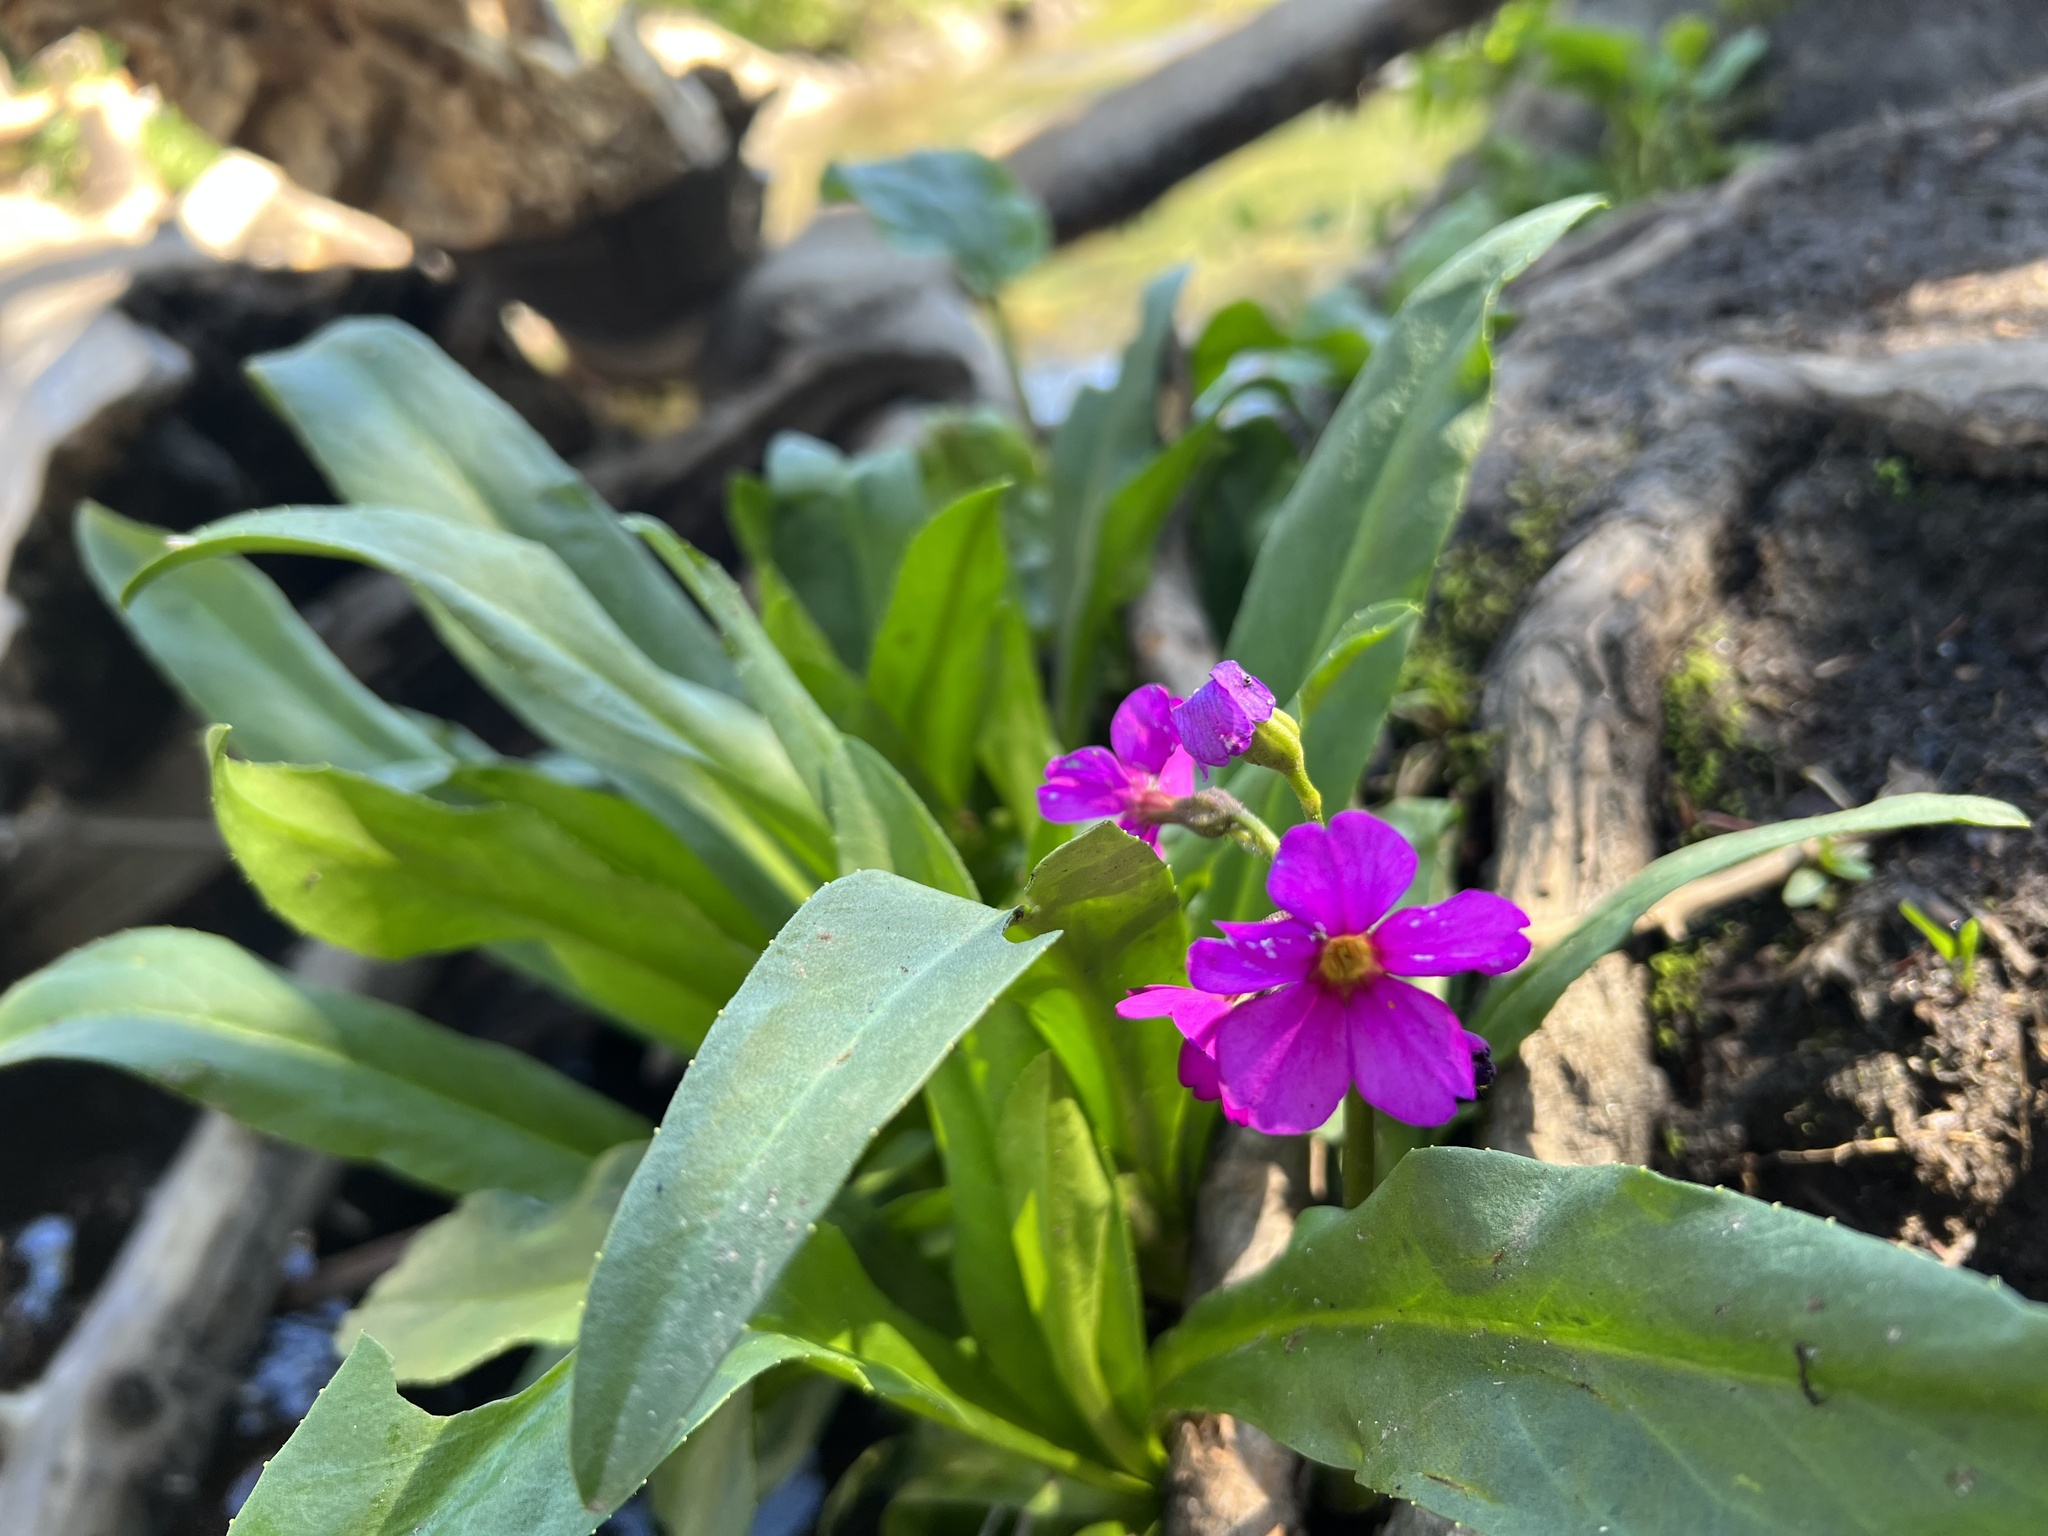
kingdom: Plantae
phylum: Tracheophyta
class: Magnoliopsida
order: Ericales
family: Primulaceae
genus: Primula
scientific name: Primula parryi
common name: Parry's primrose
